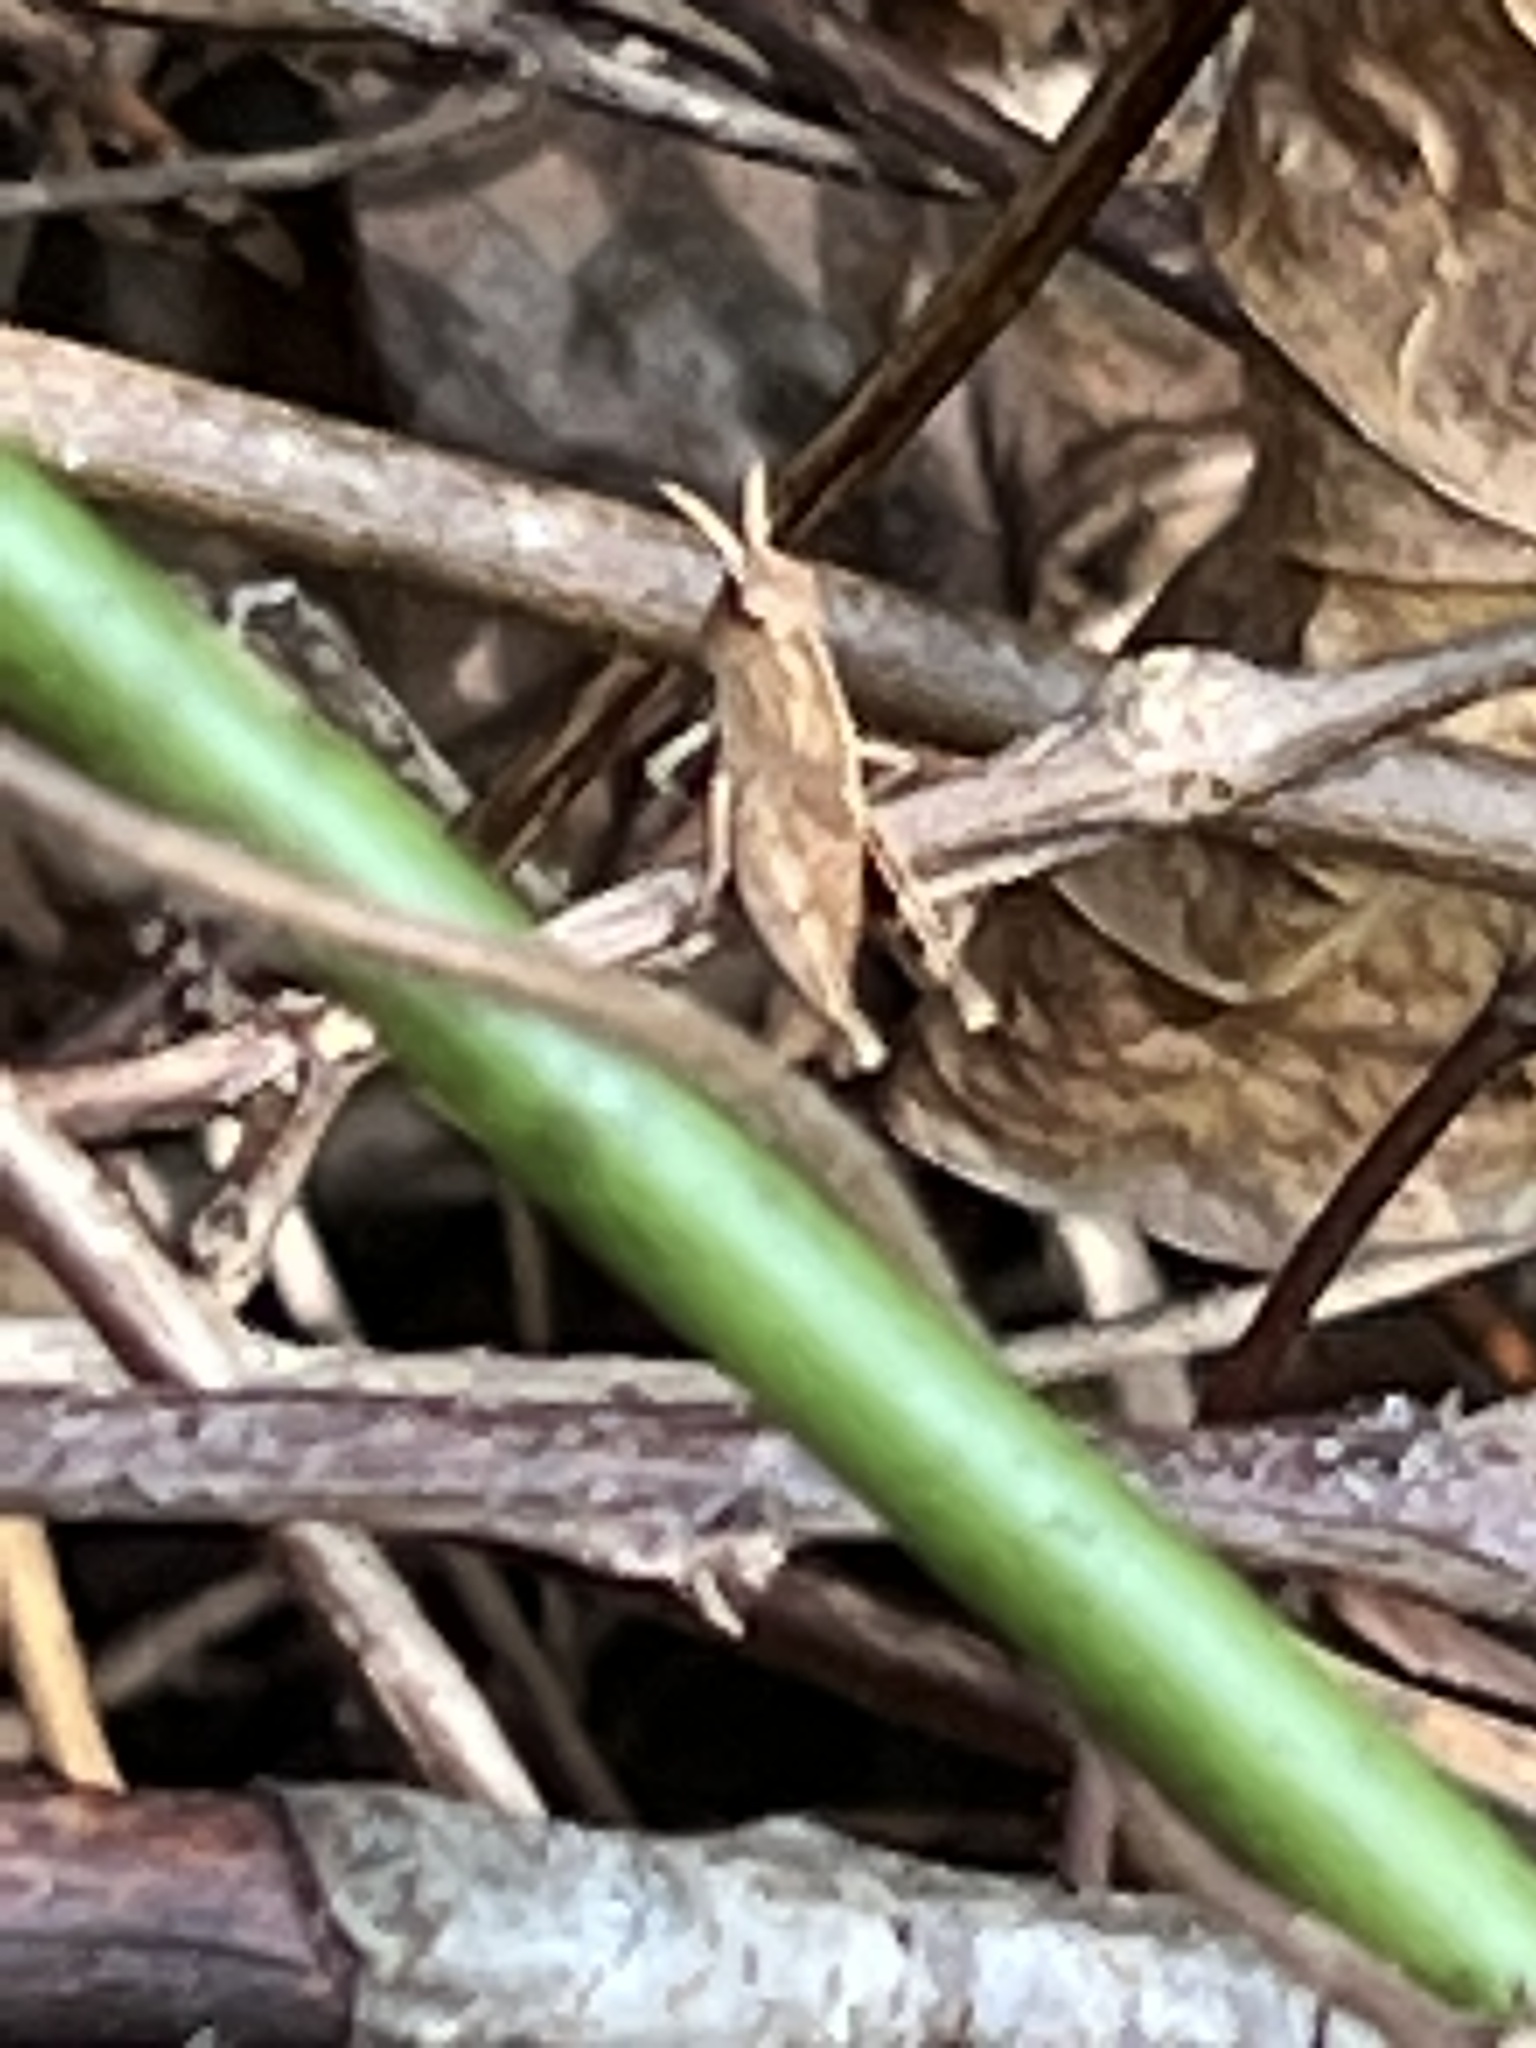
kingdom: Animalia
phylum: Arthropoda
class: Insecta
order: Orthoptera
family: Acrididae
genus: Chortophaga
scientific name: Chortophaga viridifasciata
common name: Green-striped grasshopper
